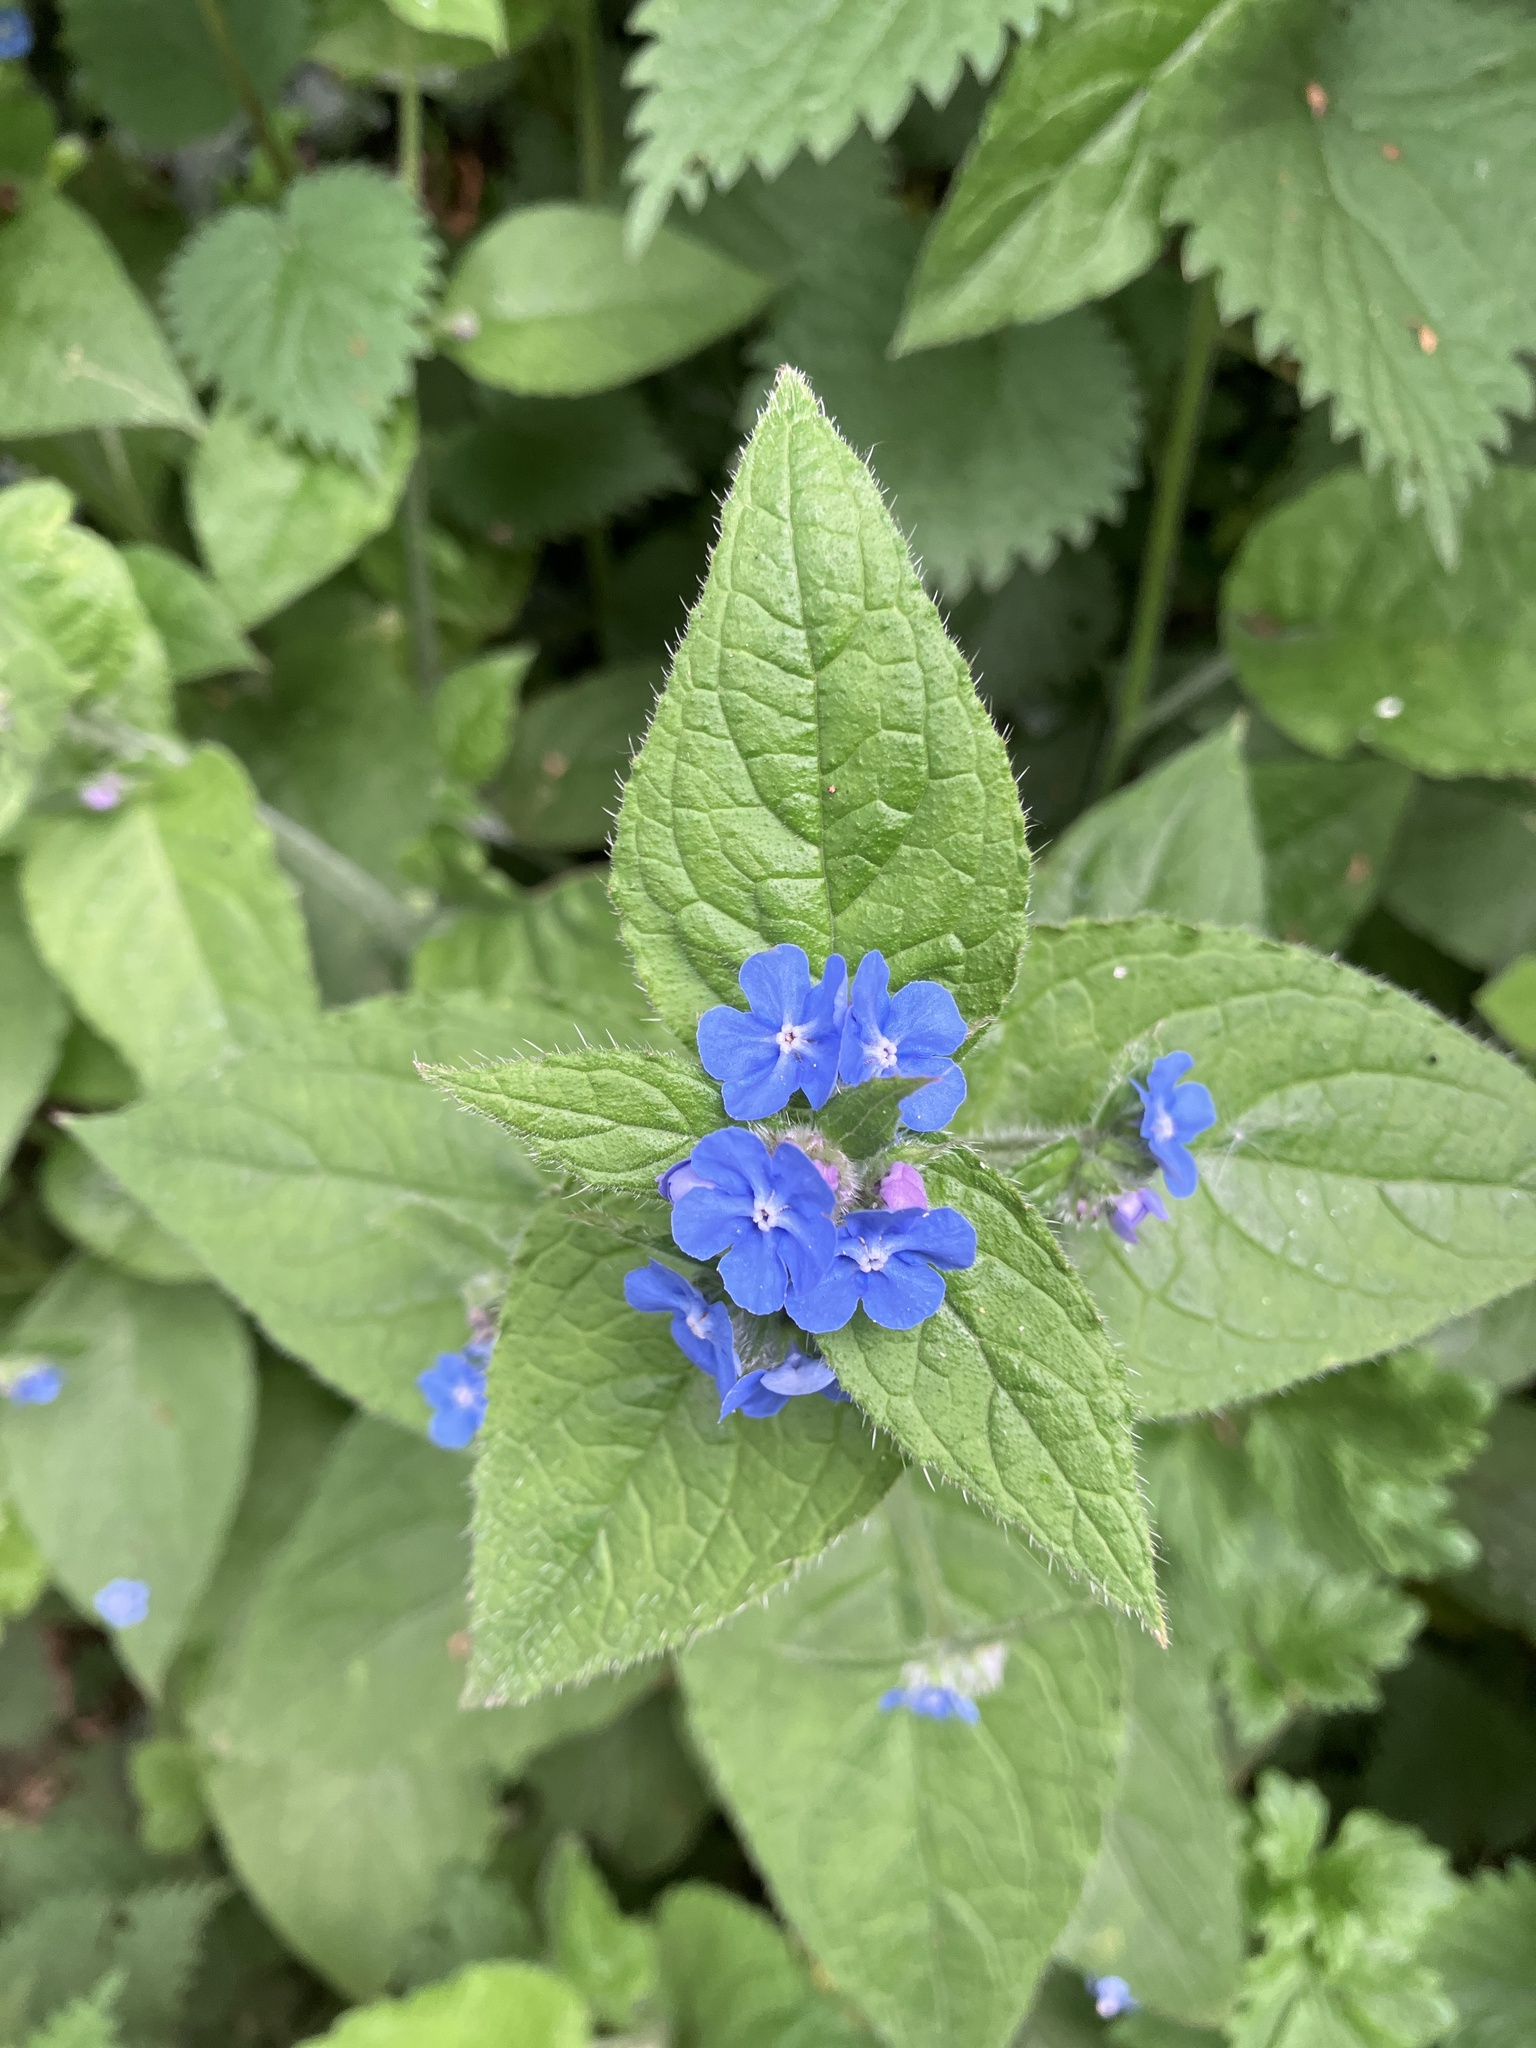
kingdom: Plantae
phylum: Tracheophyta
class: Magnoliopsida
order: Boraginales
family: Boraginaceae
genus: Pentaglottis
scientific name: Pentaglottis sempervirens
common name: Green alkanet
